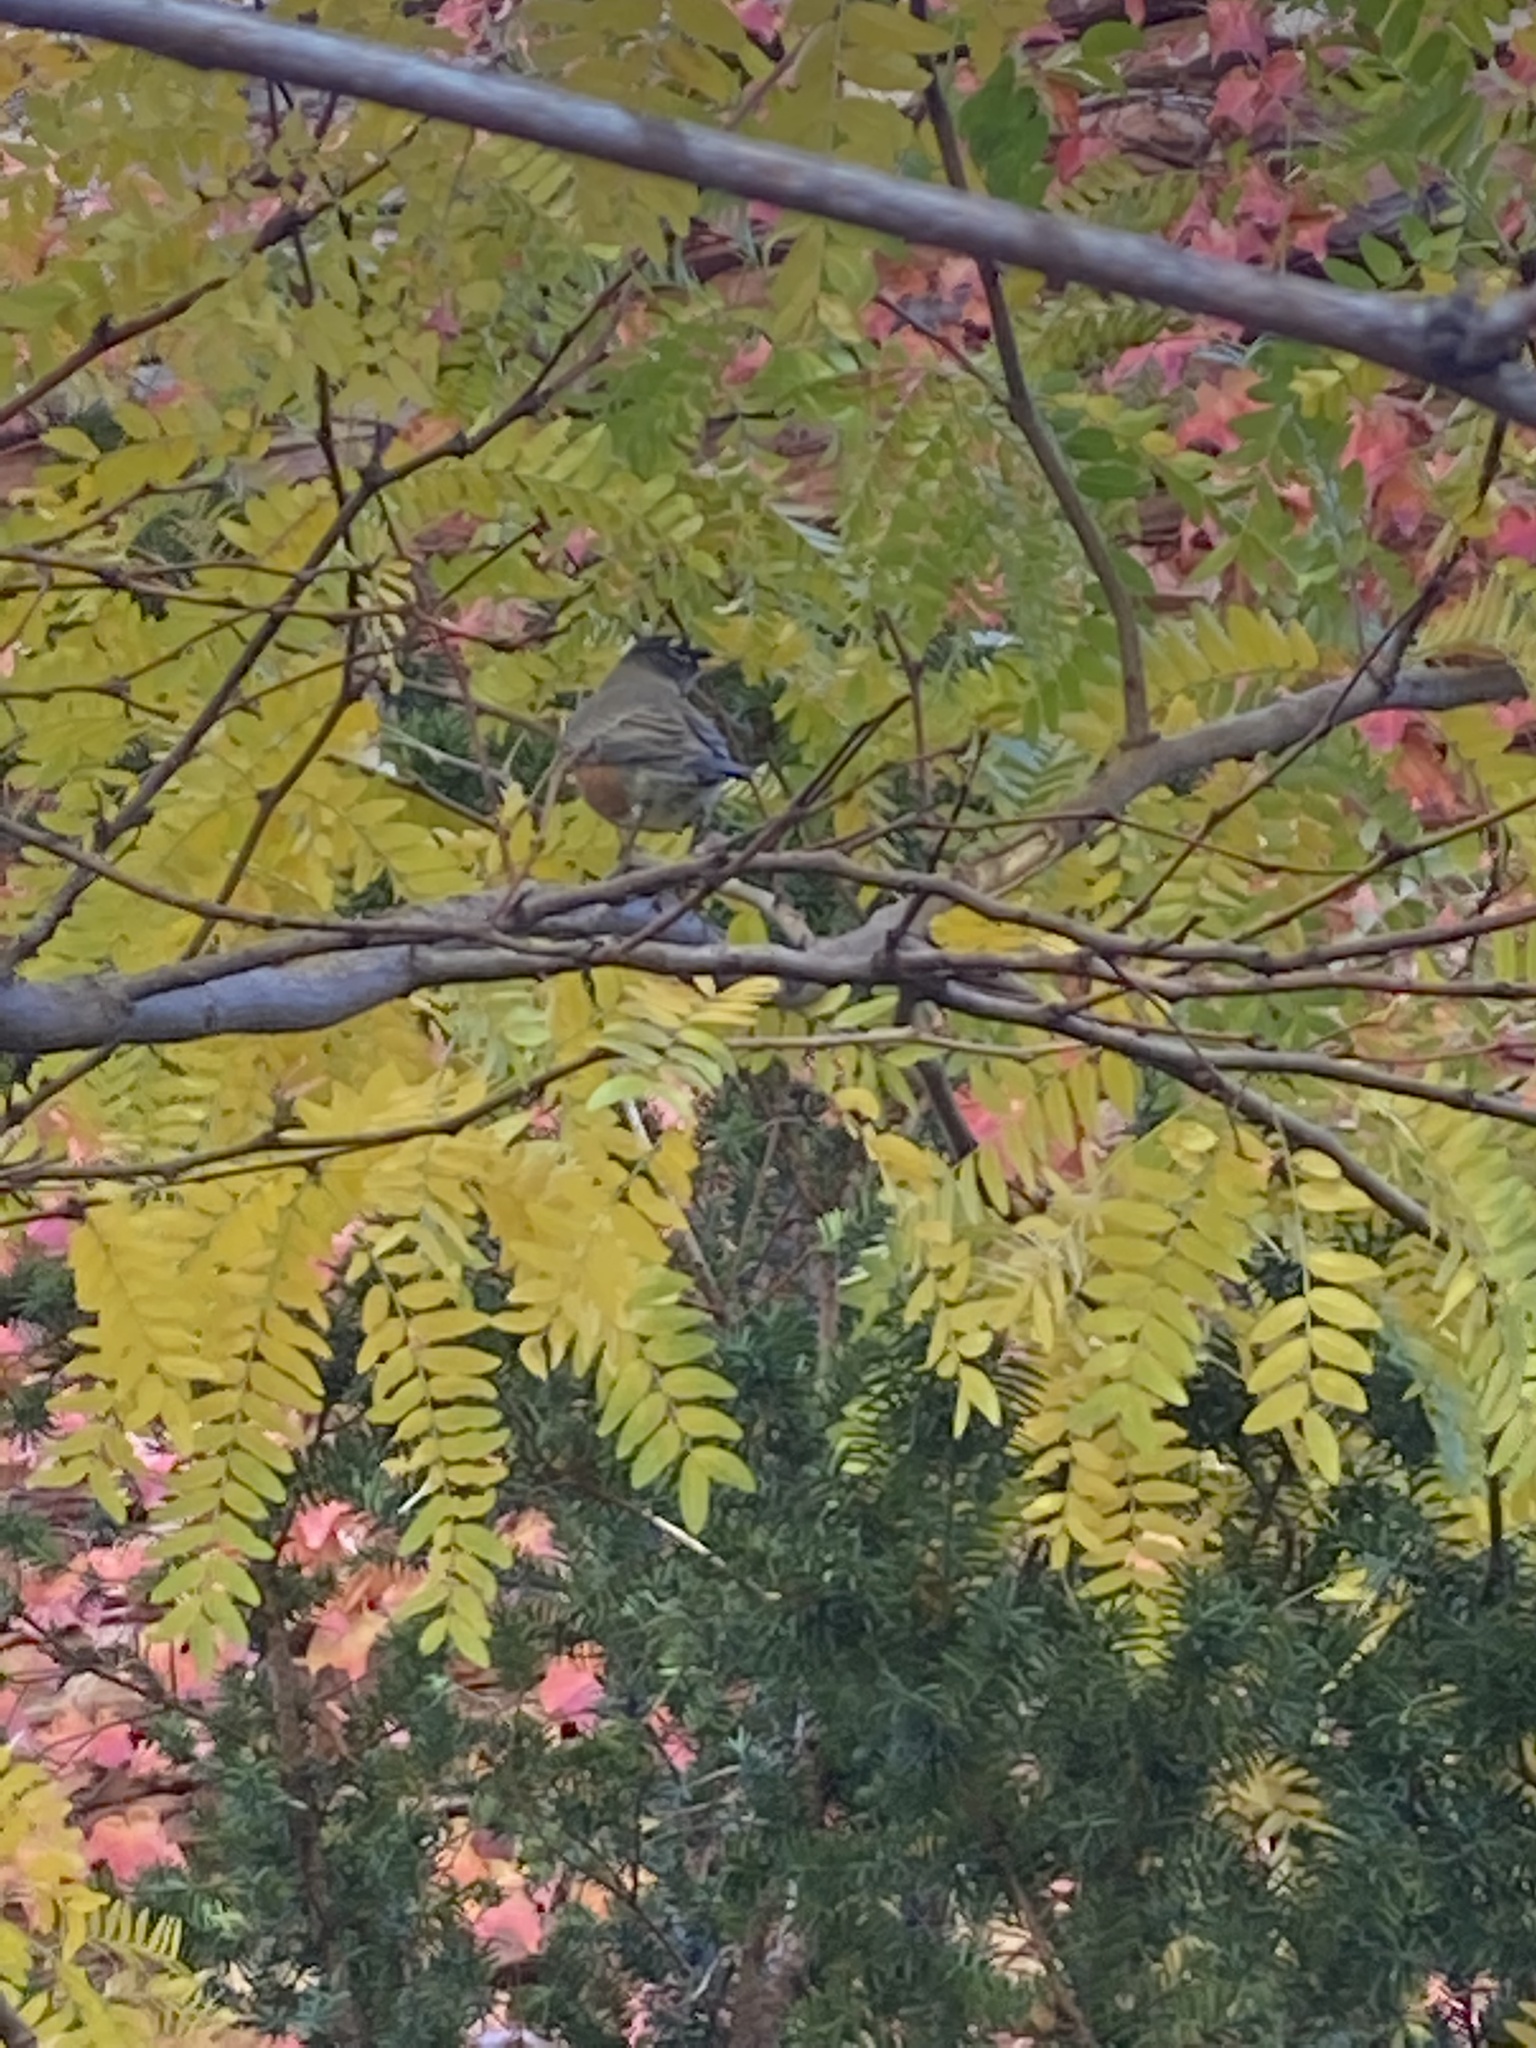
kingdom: Animalia
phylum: Chordata
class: Aves
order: Passeriformes
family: Turdidae
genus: Turdus
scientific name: Turdus migratorius
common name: American robin
